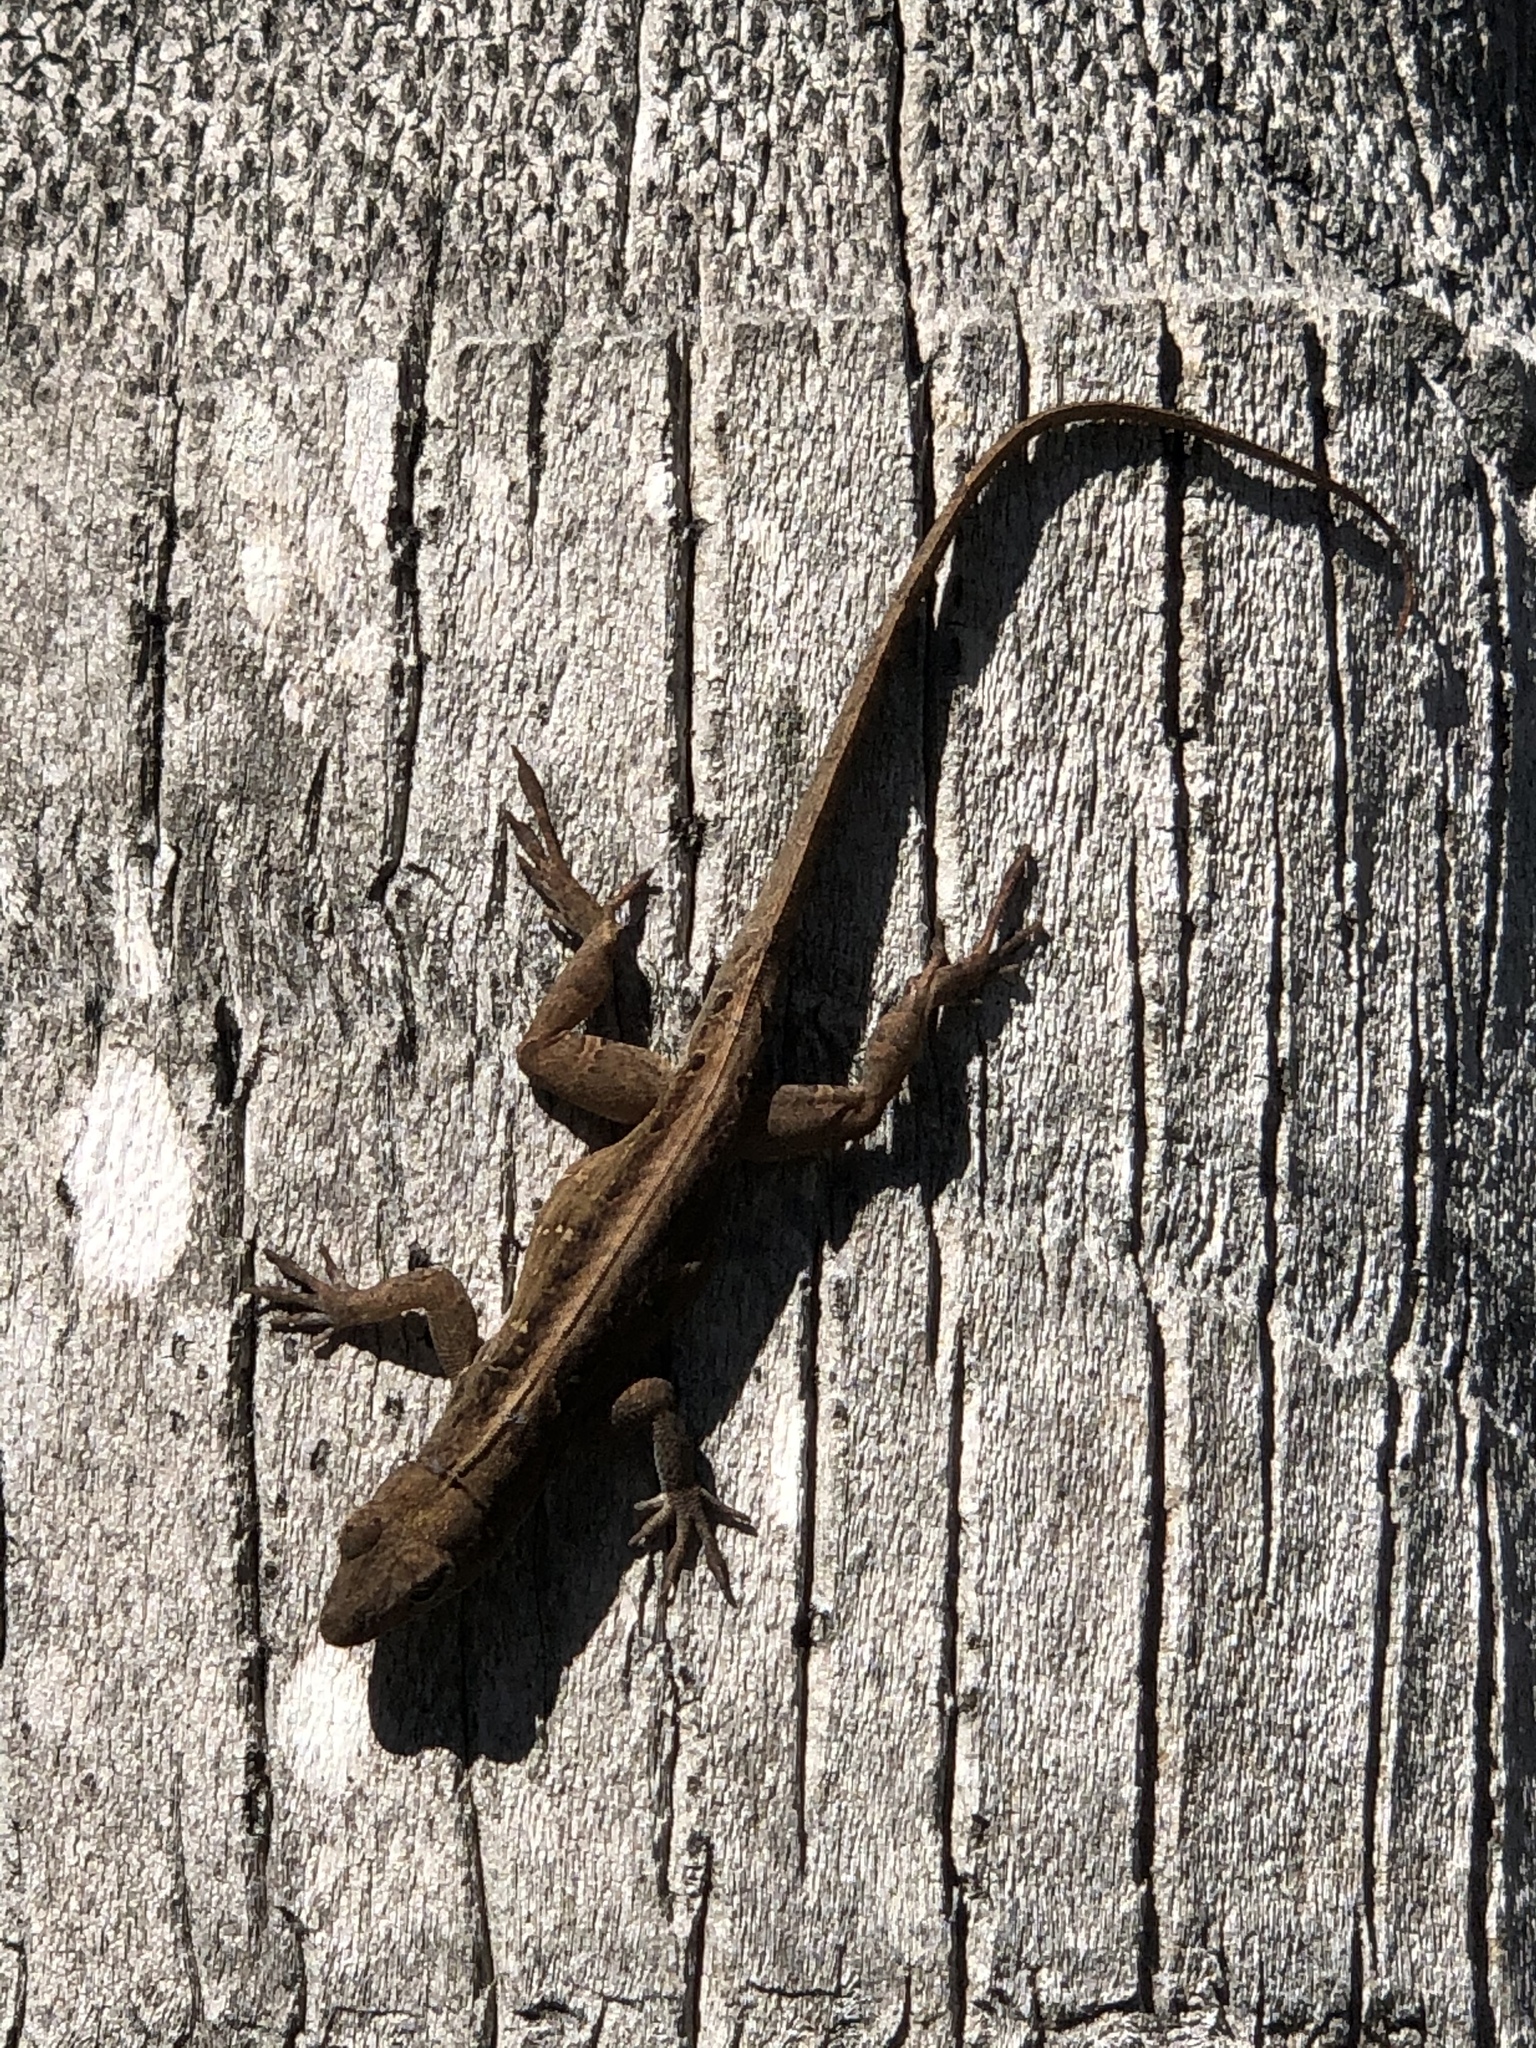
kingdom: Animalia
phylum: Chordata
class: Squamata
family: Dactyloidae
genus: Anolis
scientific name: Anolis sagrei
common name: Brown anole
